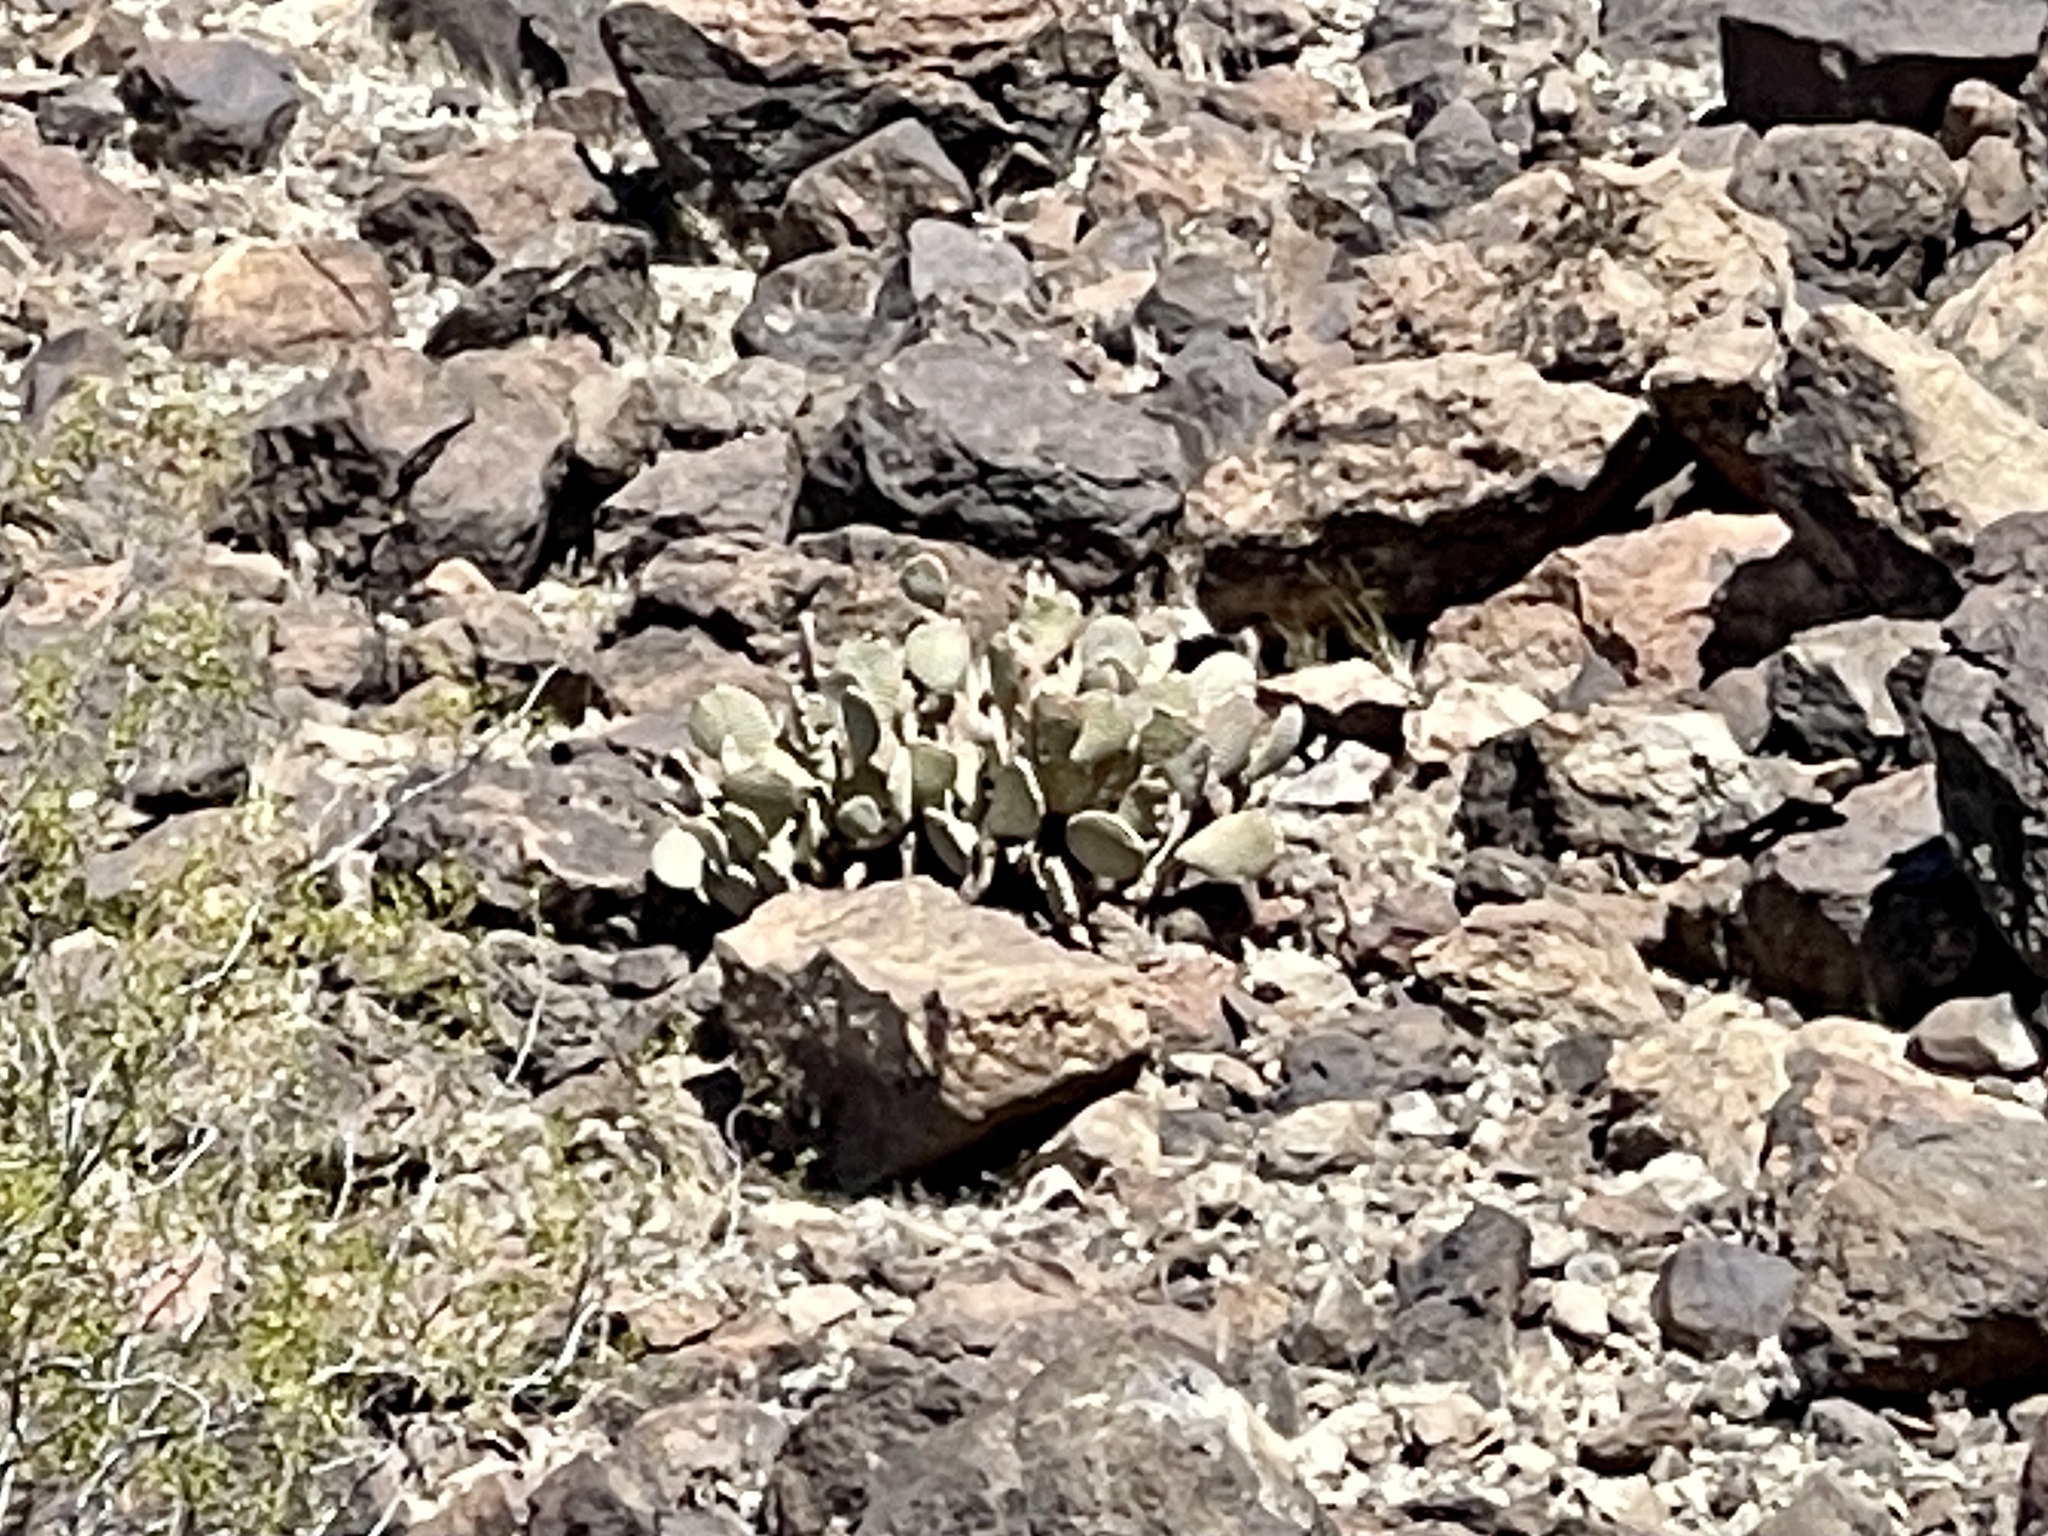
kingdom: Plantae
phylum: Tracheophyta
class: Magnoliopsida
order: Caryophyllales
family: Cactaceae
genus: Opuntia
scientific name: Opuntia basilaris
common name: Beavertail prickly-pear
